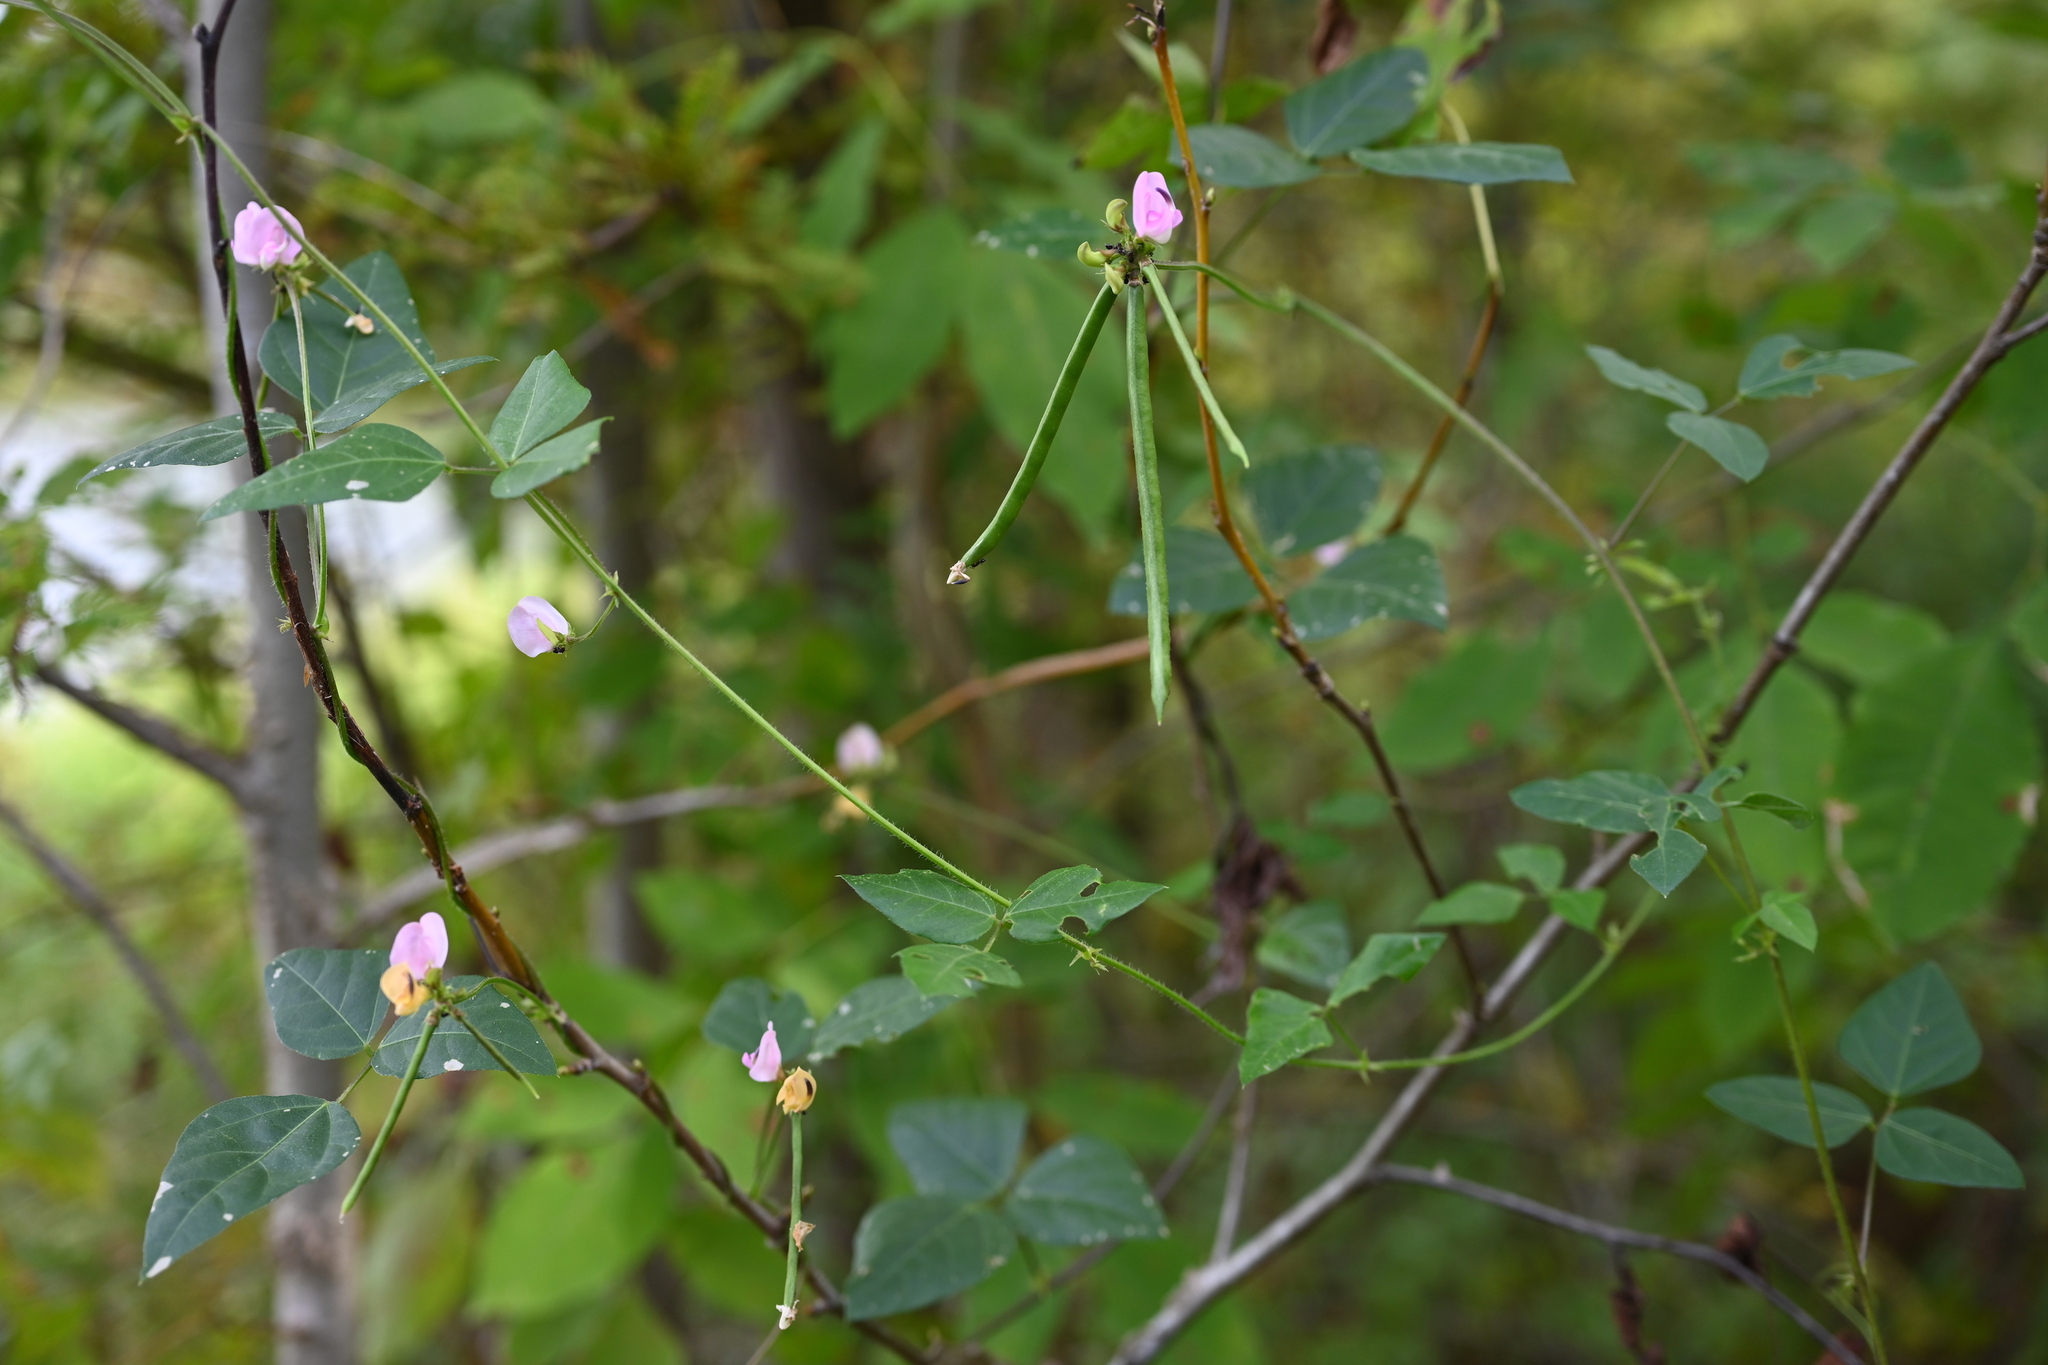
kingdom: Plantae
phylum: Tracheophyta
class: Magnoliopsida
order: Fabales
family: Fabaceae
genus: Strophostyles
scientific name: Strophostyles helvola
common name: Trailing wild bean
